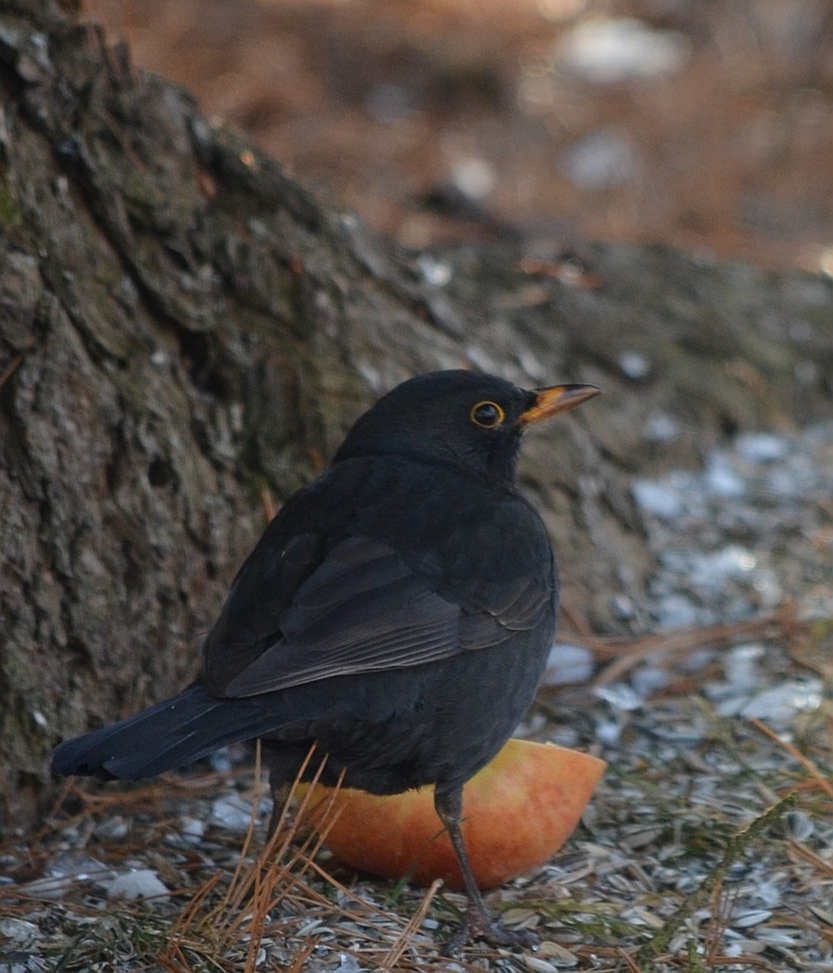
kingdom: Animalia
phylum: Chordata
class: Aves
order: Passeriformes
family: Turdidae
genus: Turdus
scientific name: Turdus merula
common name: Common blackbird
